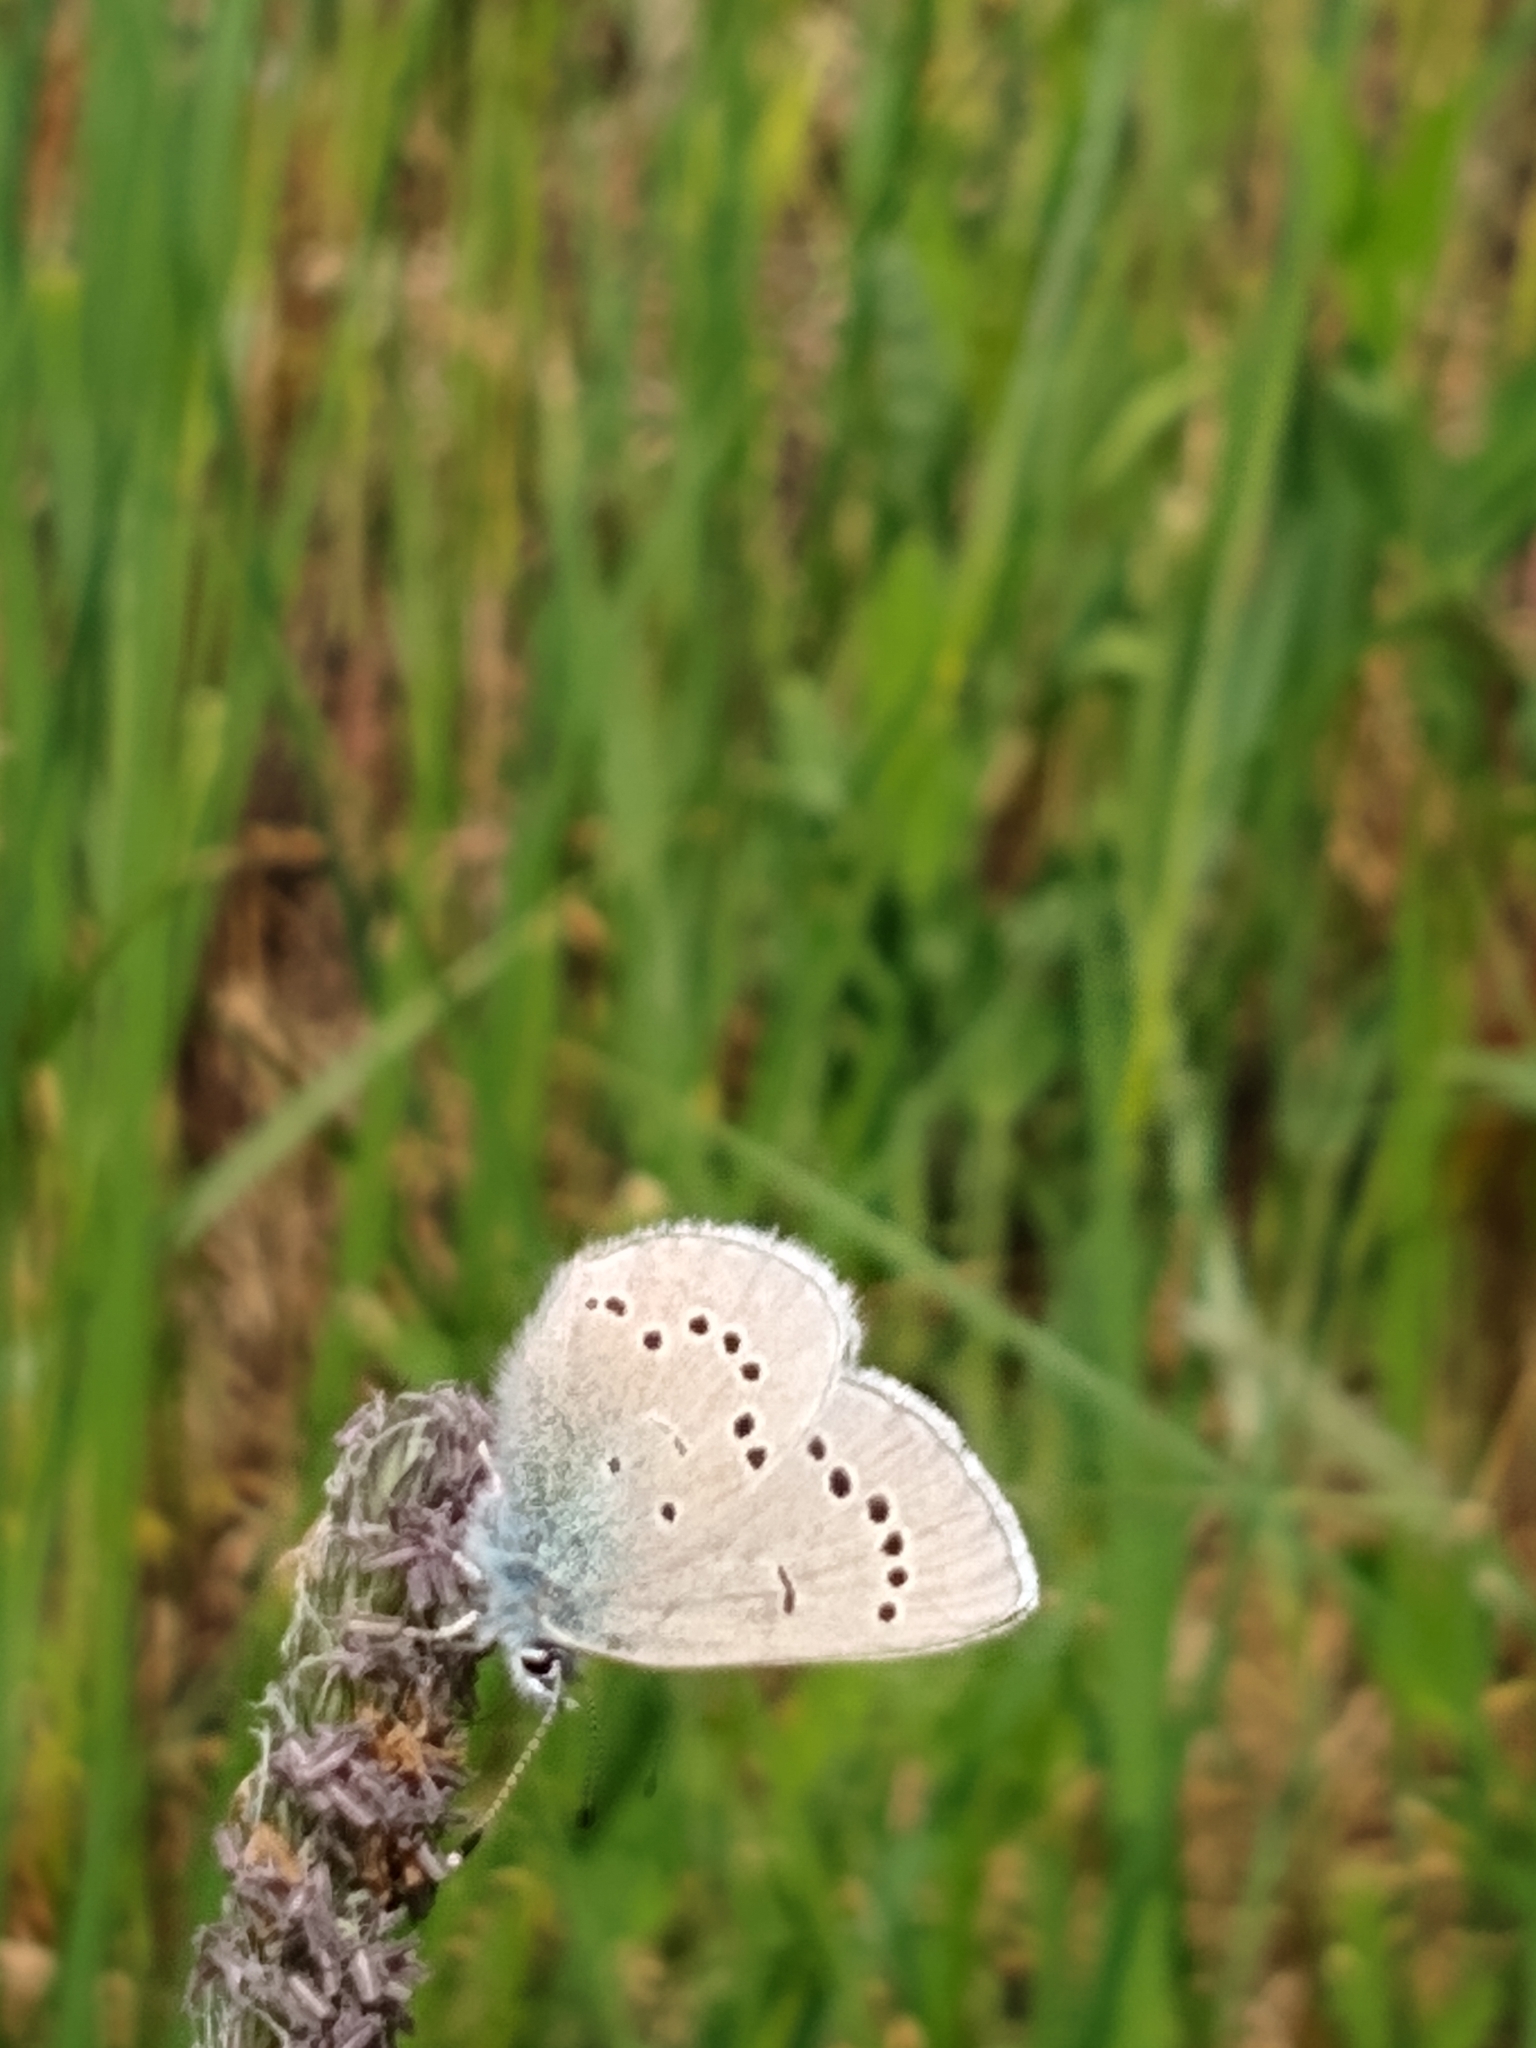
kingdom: Animalia
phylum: Arthropoda
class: Insecta
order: Lepidoptera
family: Lycaenidae
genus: Glaucopsyche
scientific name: Glaucopsyche lygdamus
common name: Silvery blue
